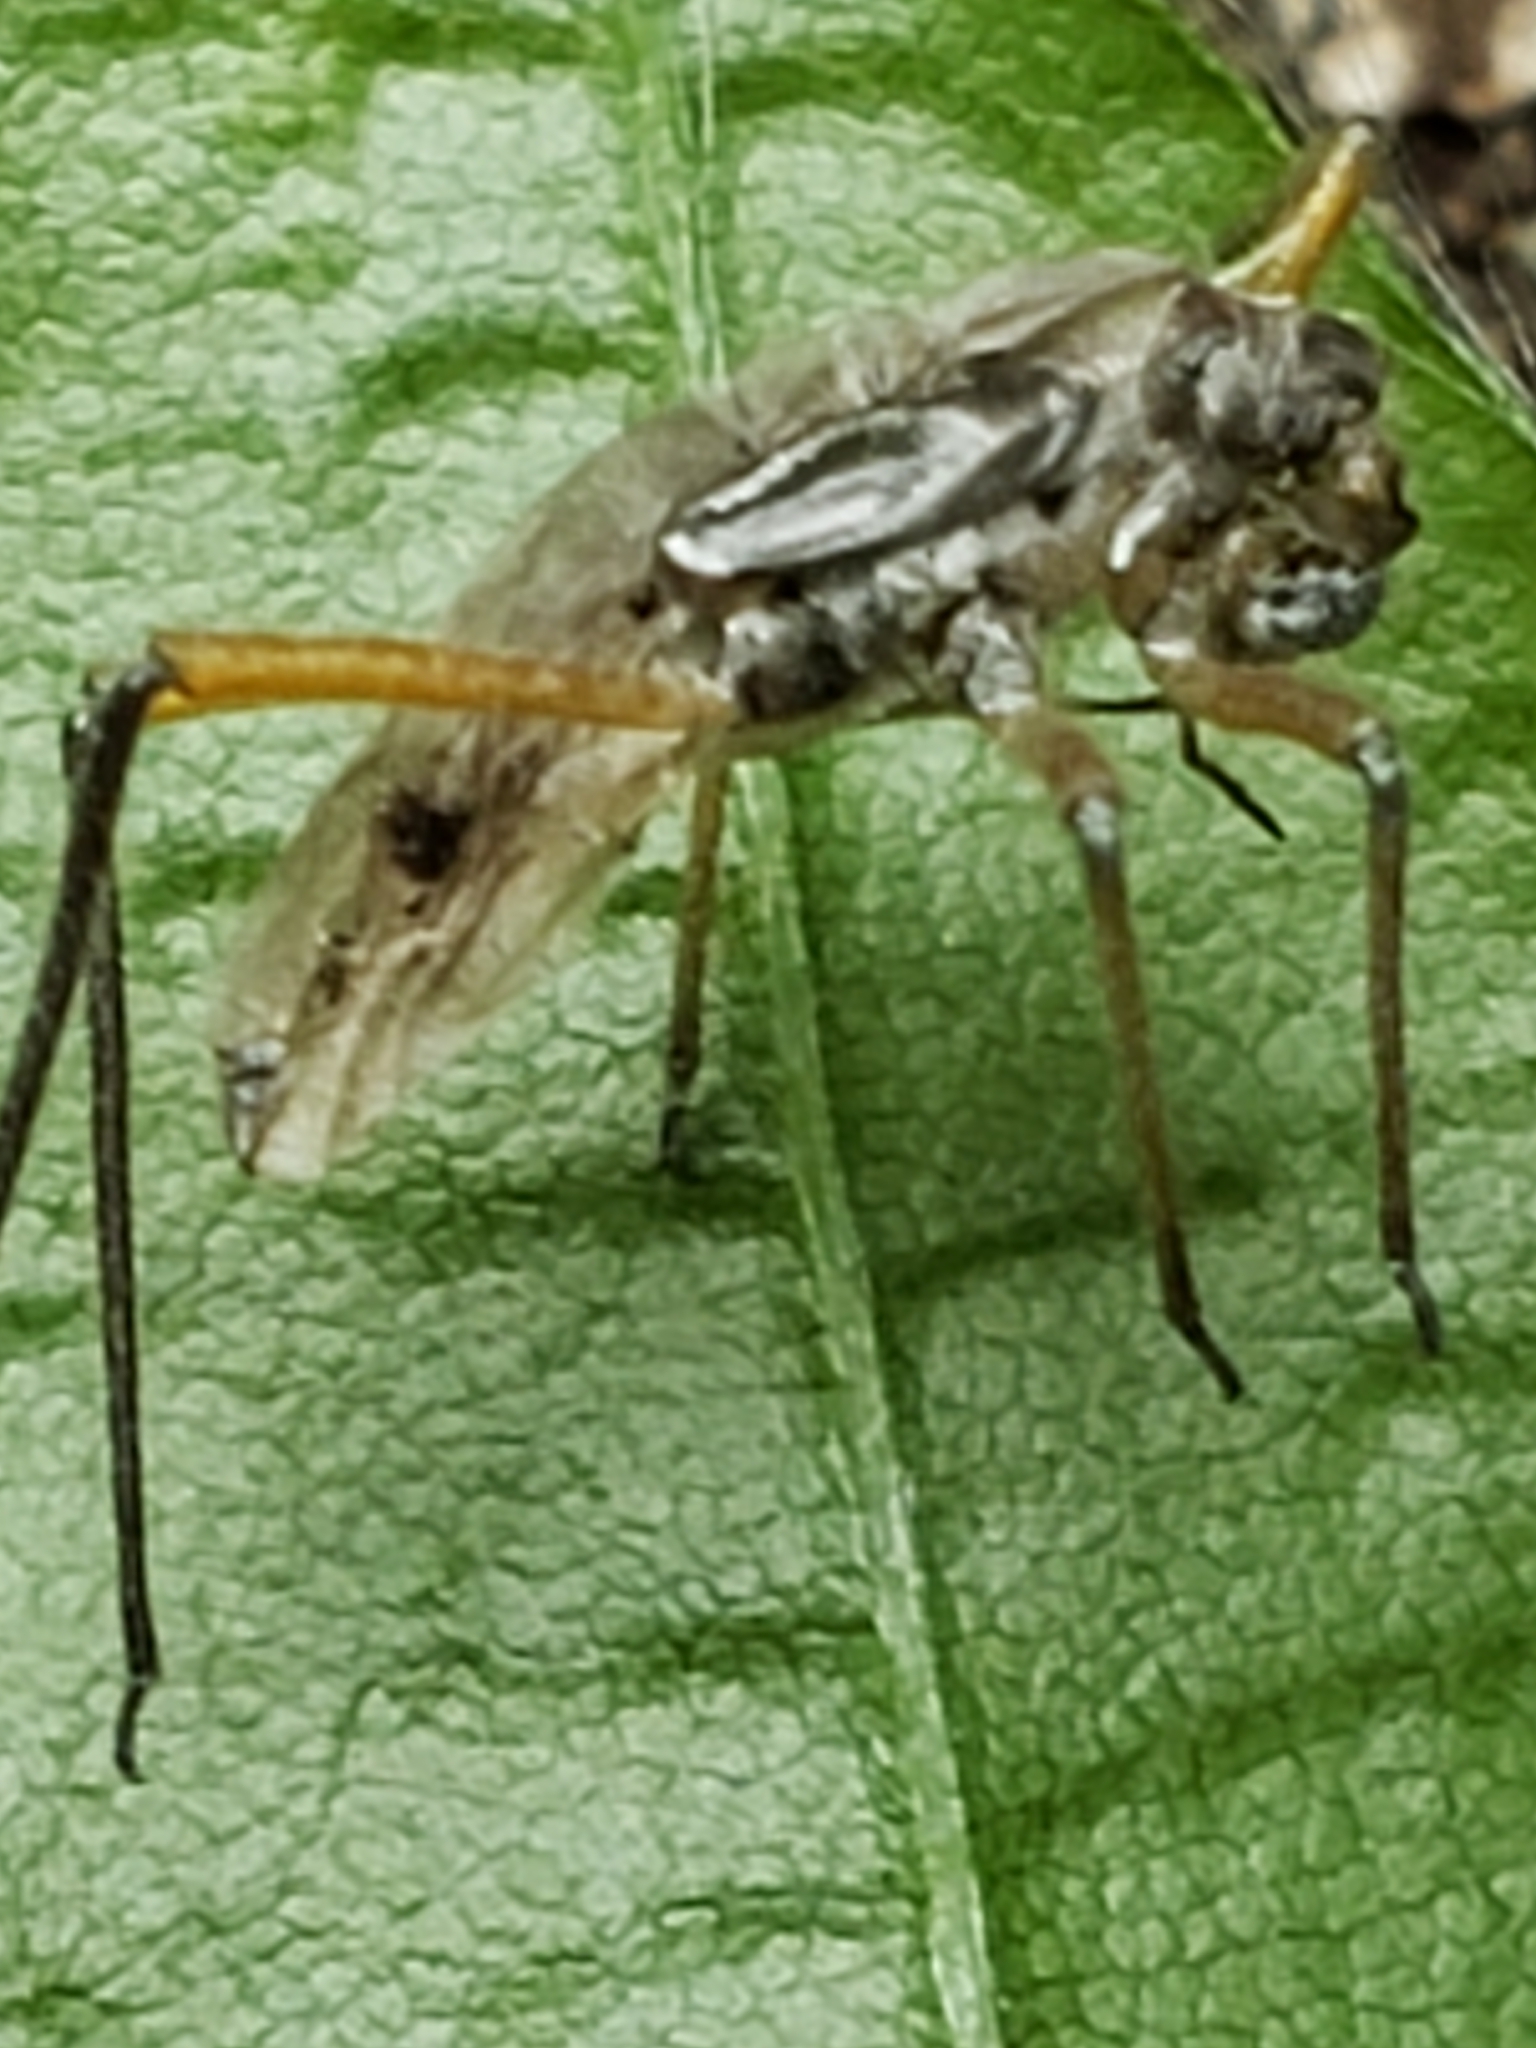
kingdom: Animalia
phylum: Arthropoda
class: Insecta
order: Hemiptera
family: Aphididae
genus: Longistigma
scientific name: Longistigma caryae
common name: Giant bark aphid
